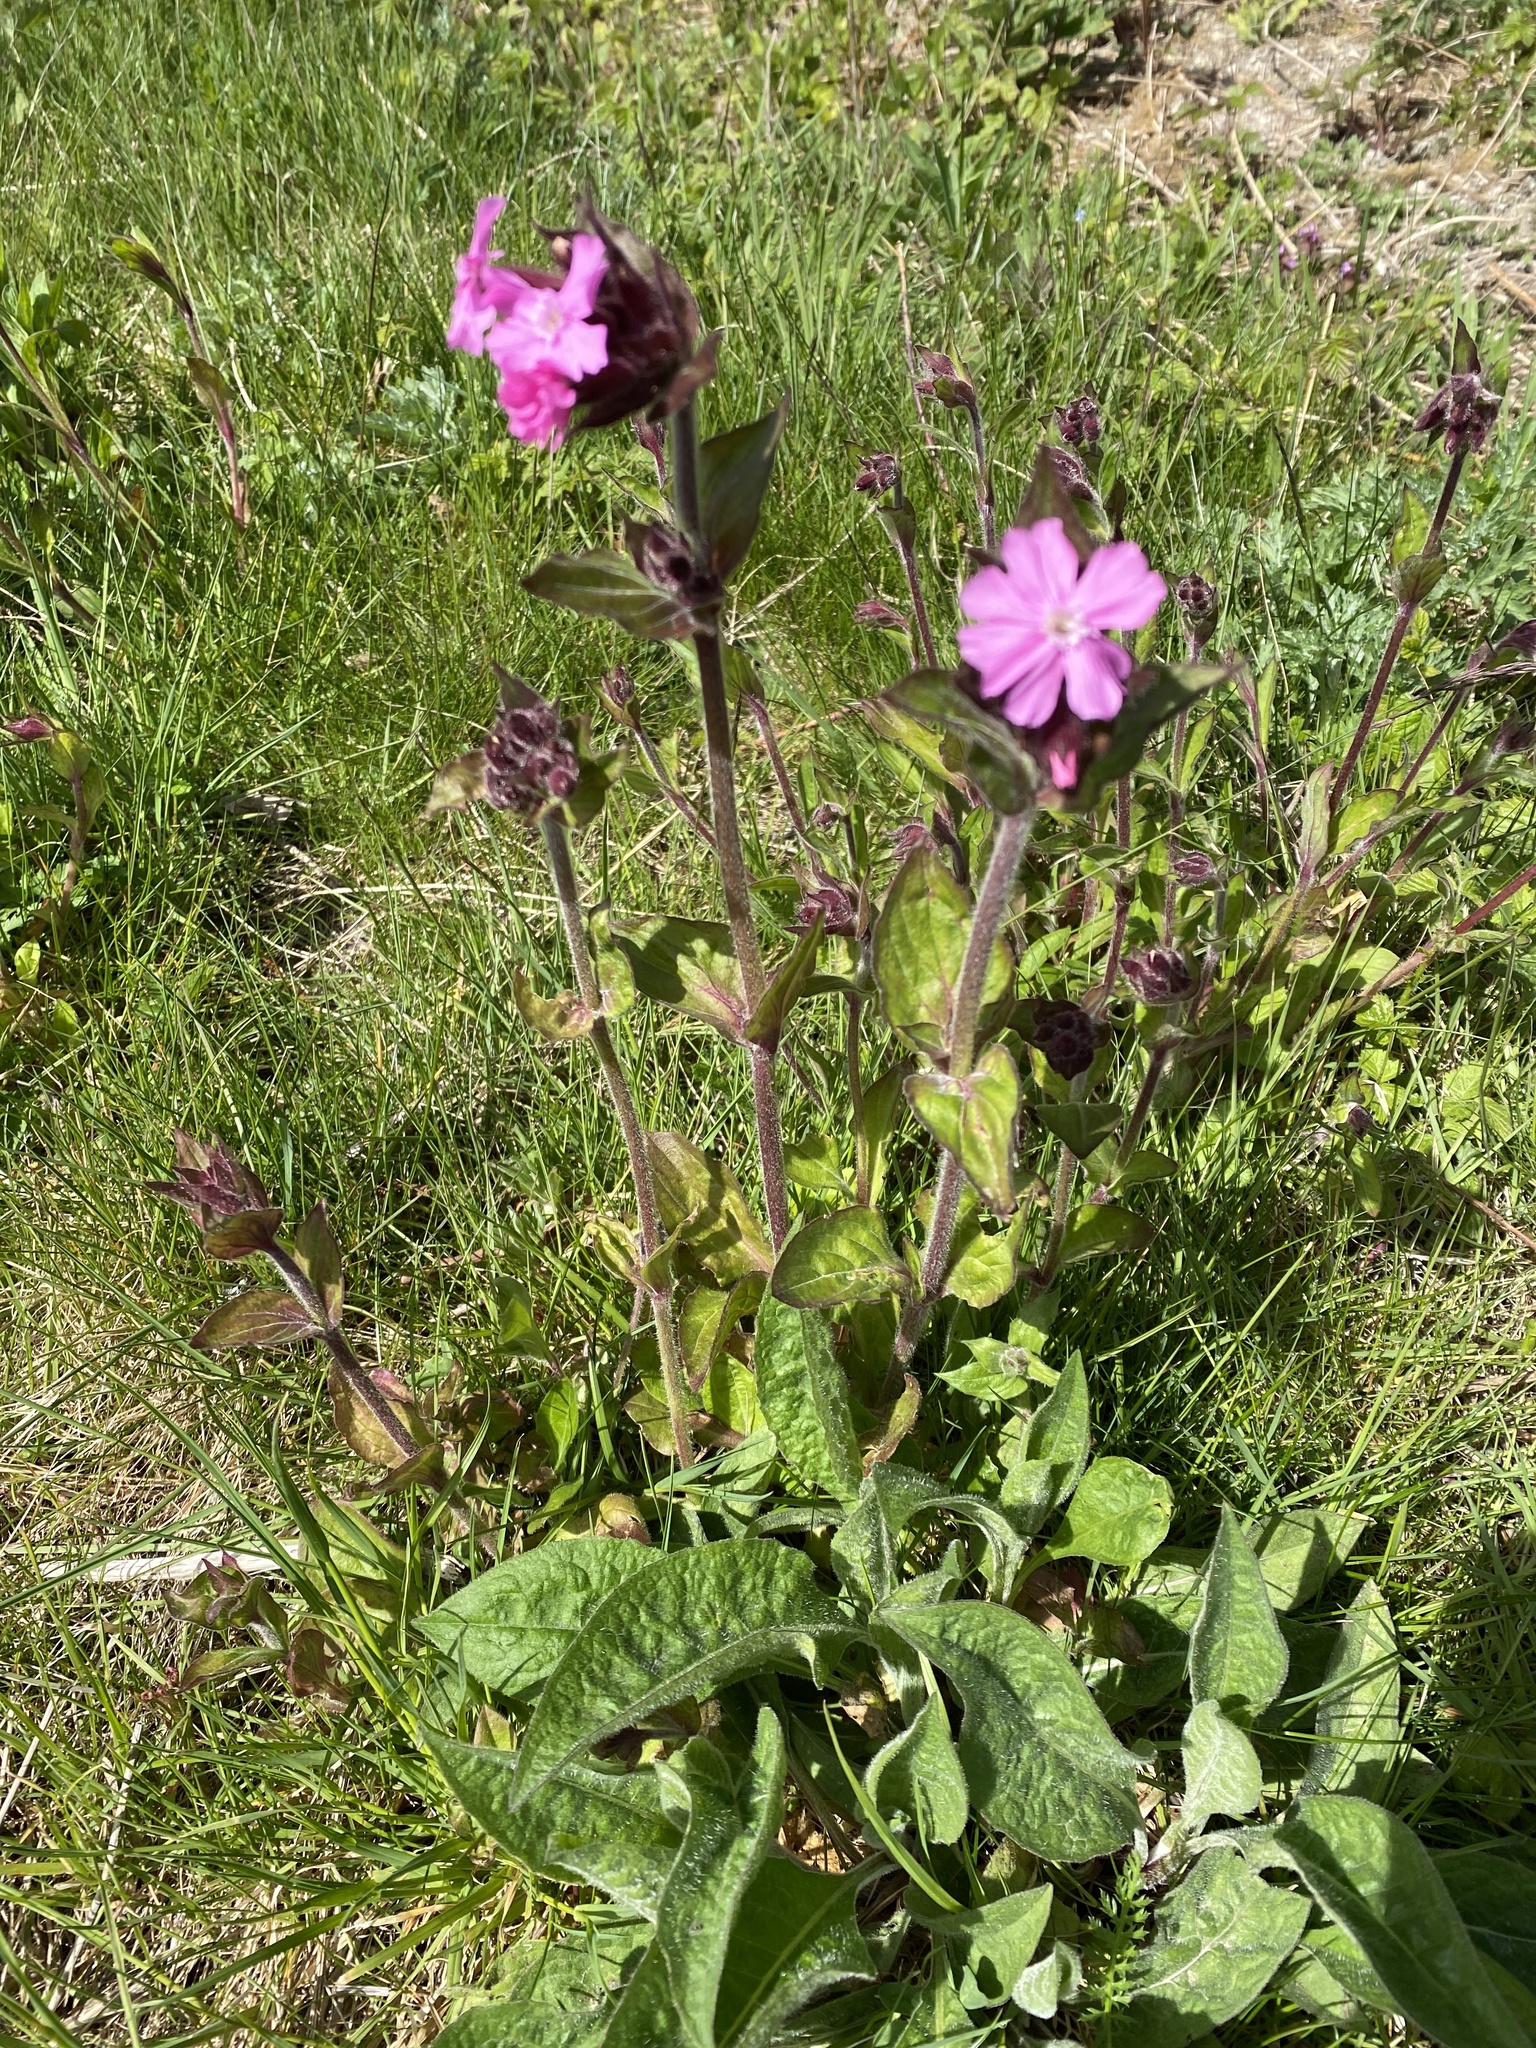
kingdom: Plantae
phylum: Tracheophyta
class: Magnoliopsida
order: Caryophyllales
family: Caryophyllaceae
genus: Silene
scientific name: Silene dioica
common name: Red campion
